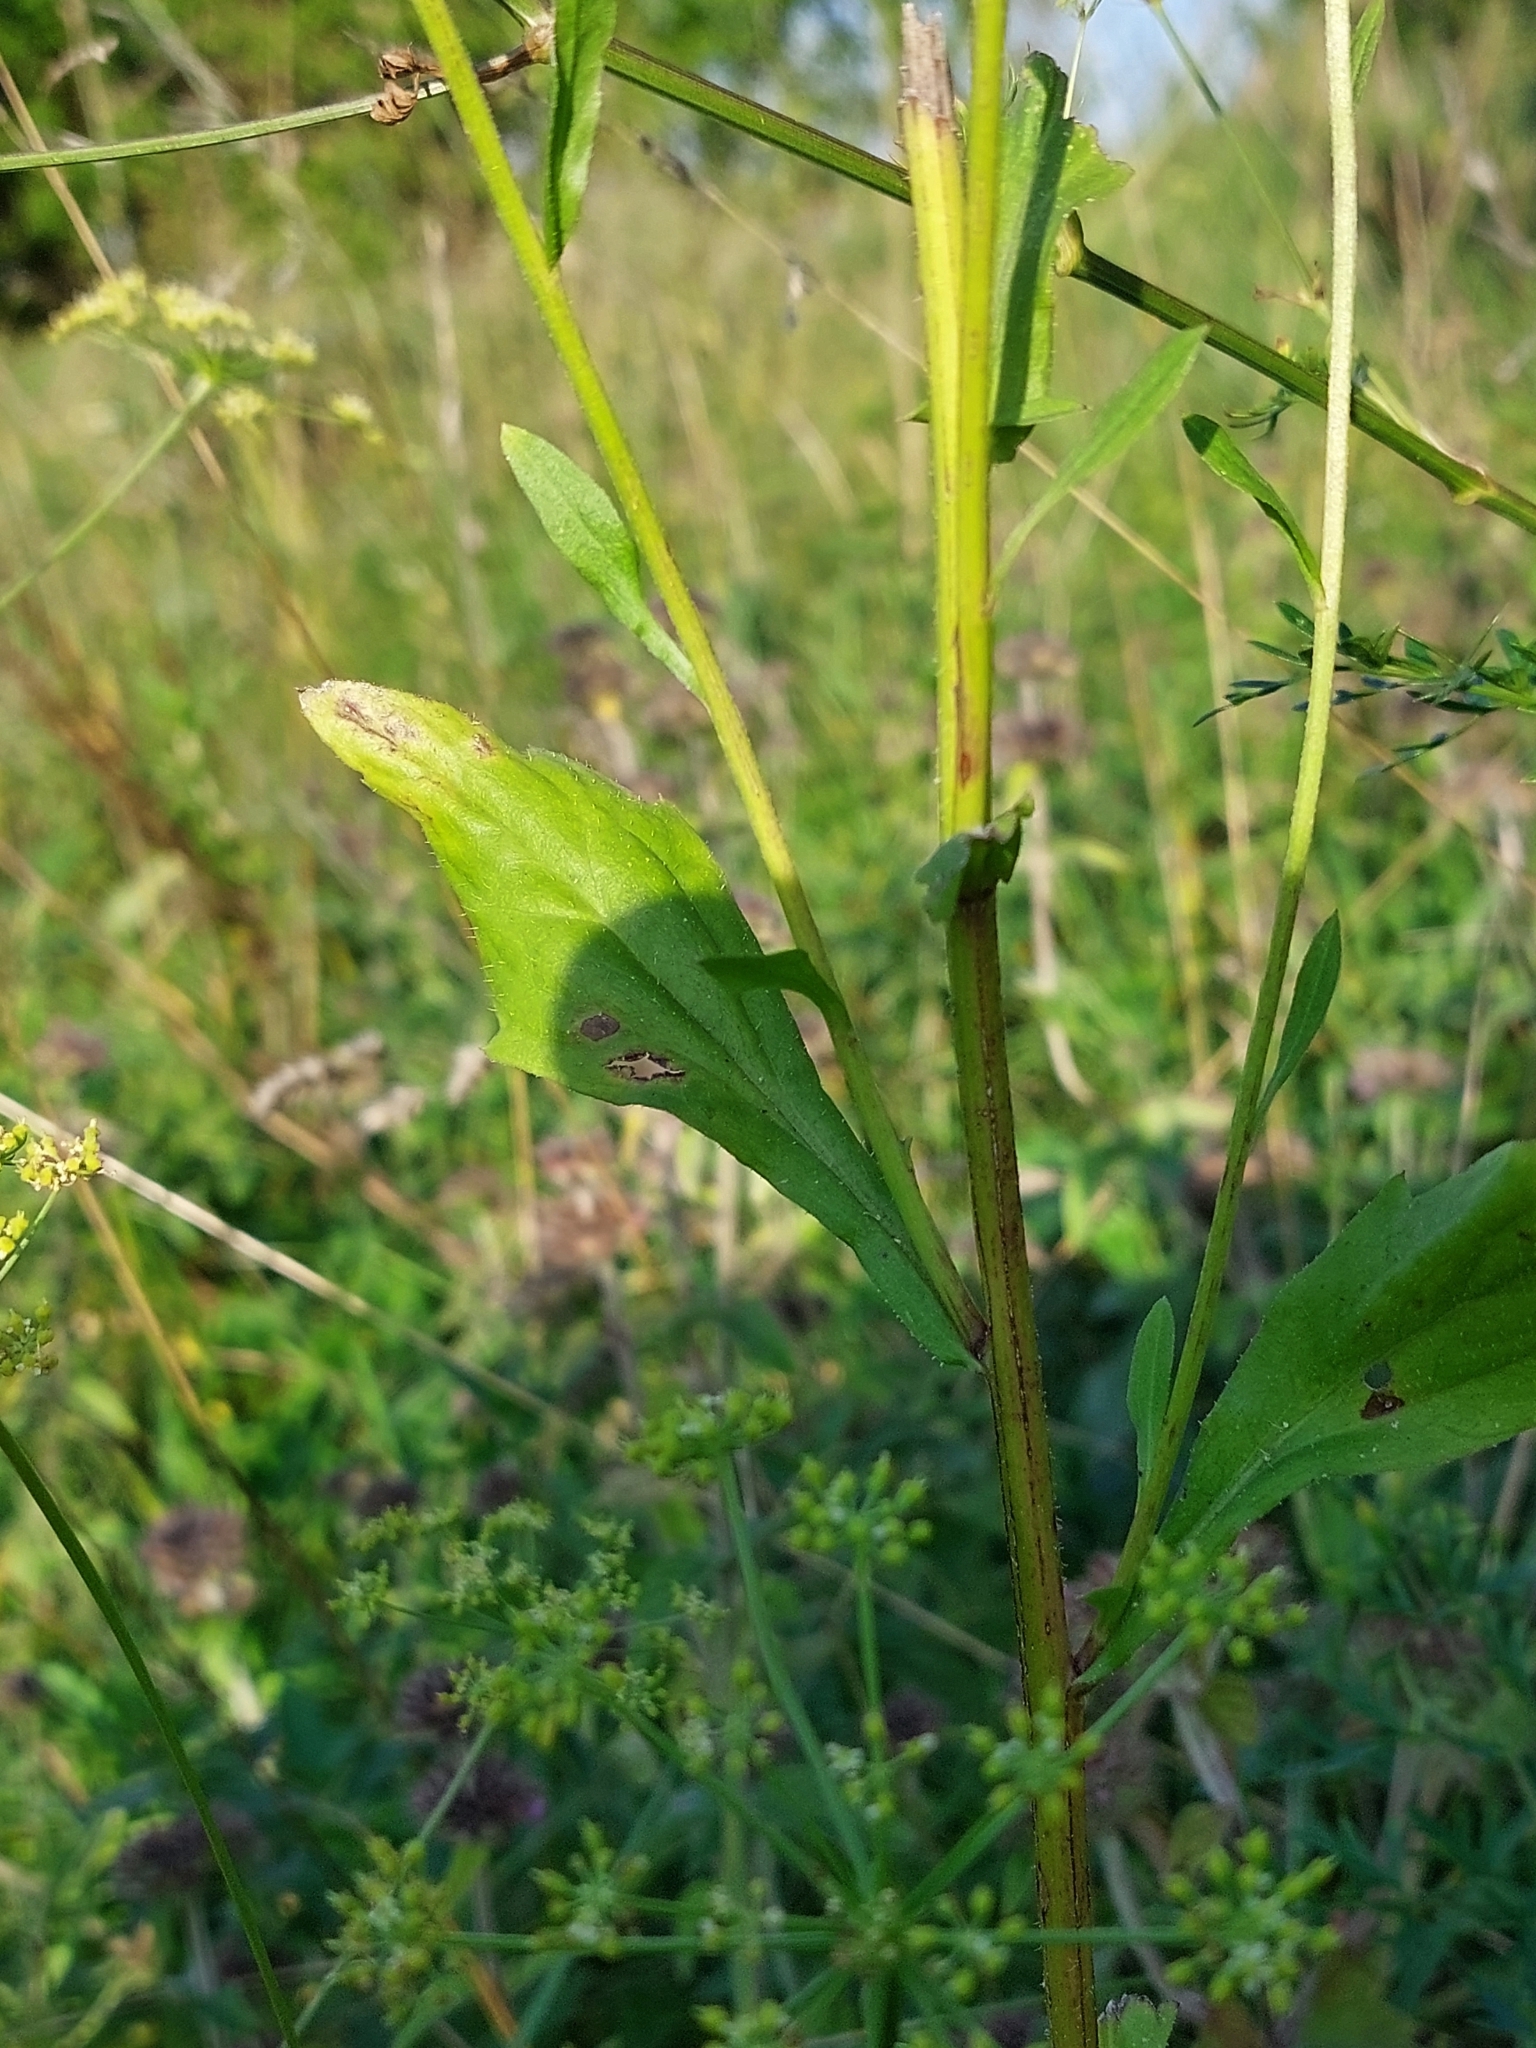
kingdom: Plantae
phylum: Tracheophyta
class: Magnoliopsida
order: Asterales
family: Asteraceae
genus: Erigeron
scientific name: Erigeron annuus
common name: Tall fleabane
